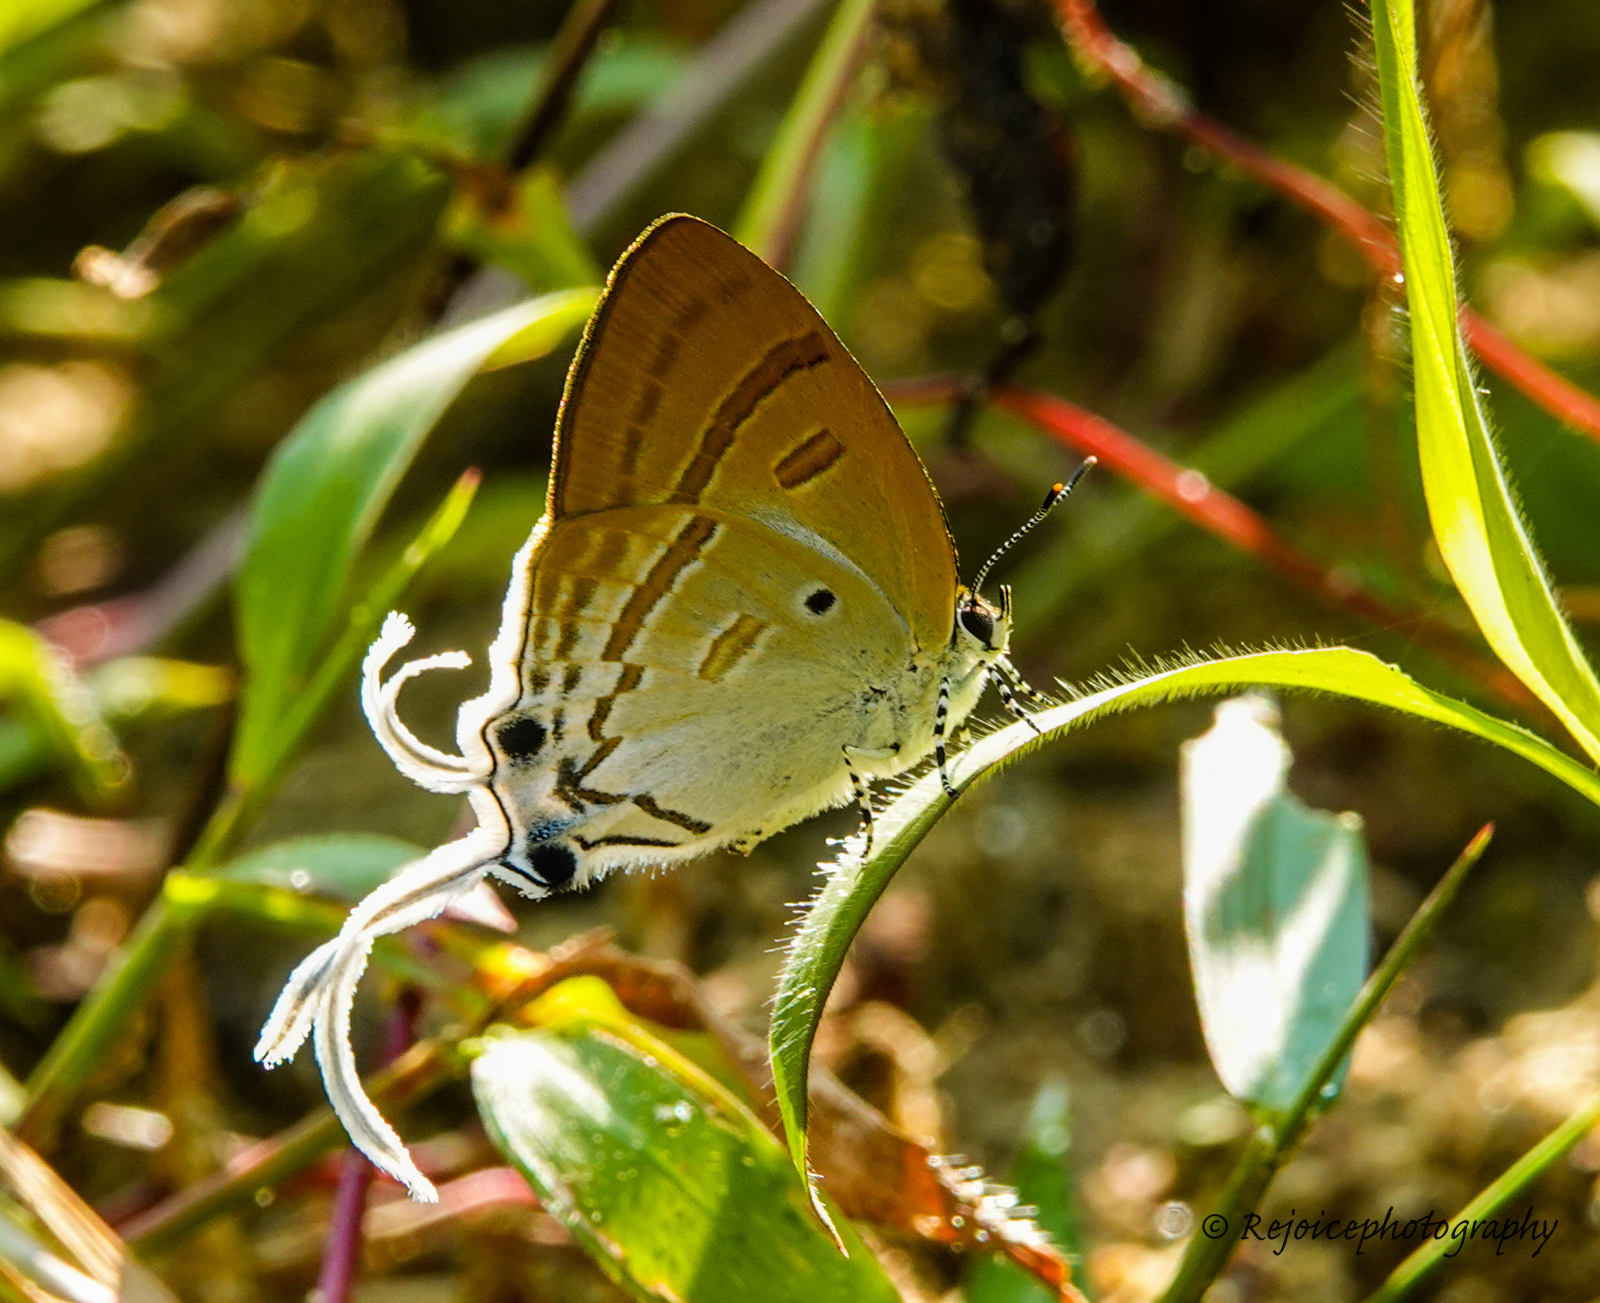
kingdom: Animalia
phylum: Arthropoda
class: Insecta
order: Lepidoptera
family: Lycaenidae
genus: Zeltus
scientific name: Zeltus amasa
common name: Fluffy tit
